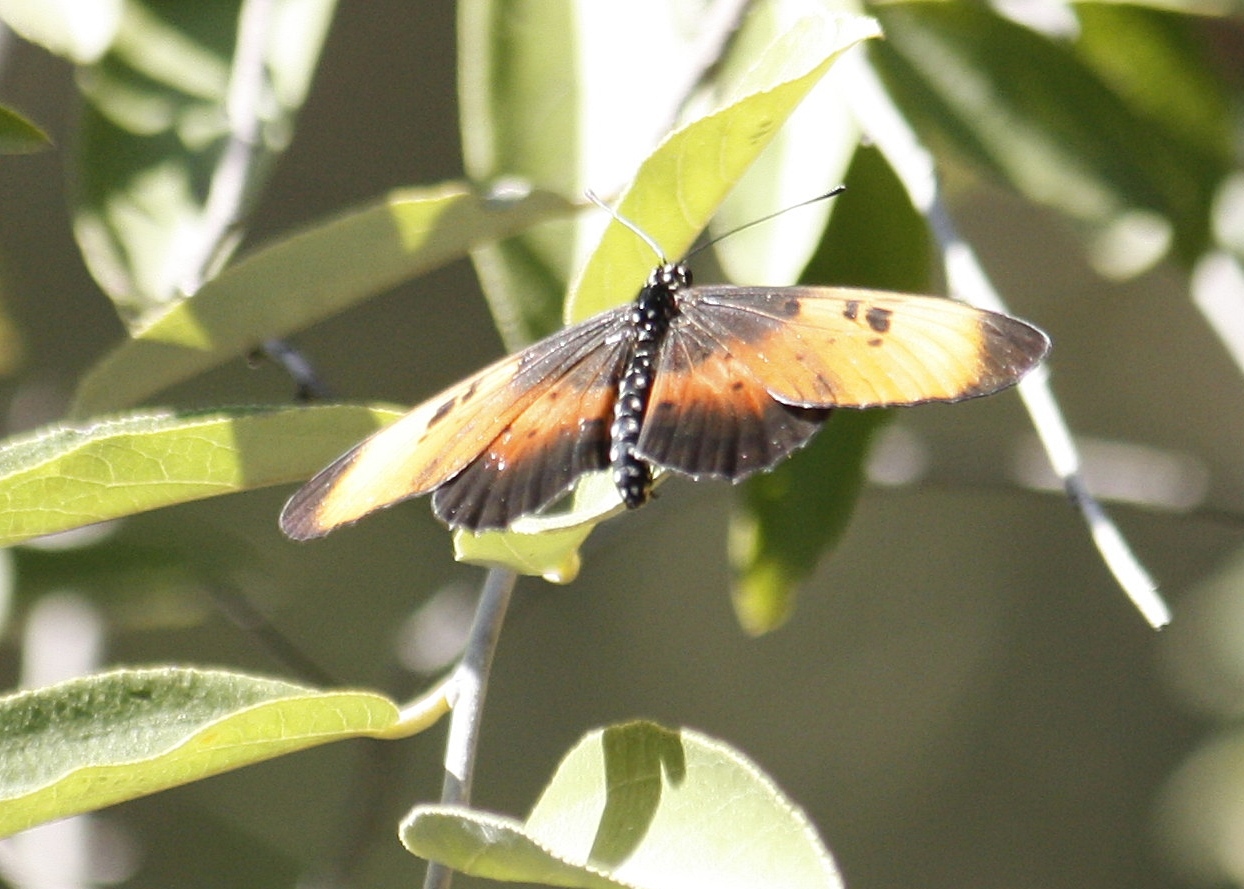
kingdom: Animalia
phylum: Arthropoda
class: Insecta
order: Lepidoptera
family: Nymphalidae
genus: Stephenia
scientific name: Stephenia
